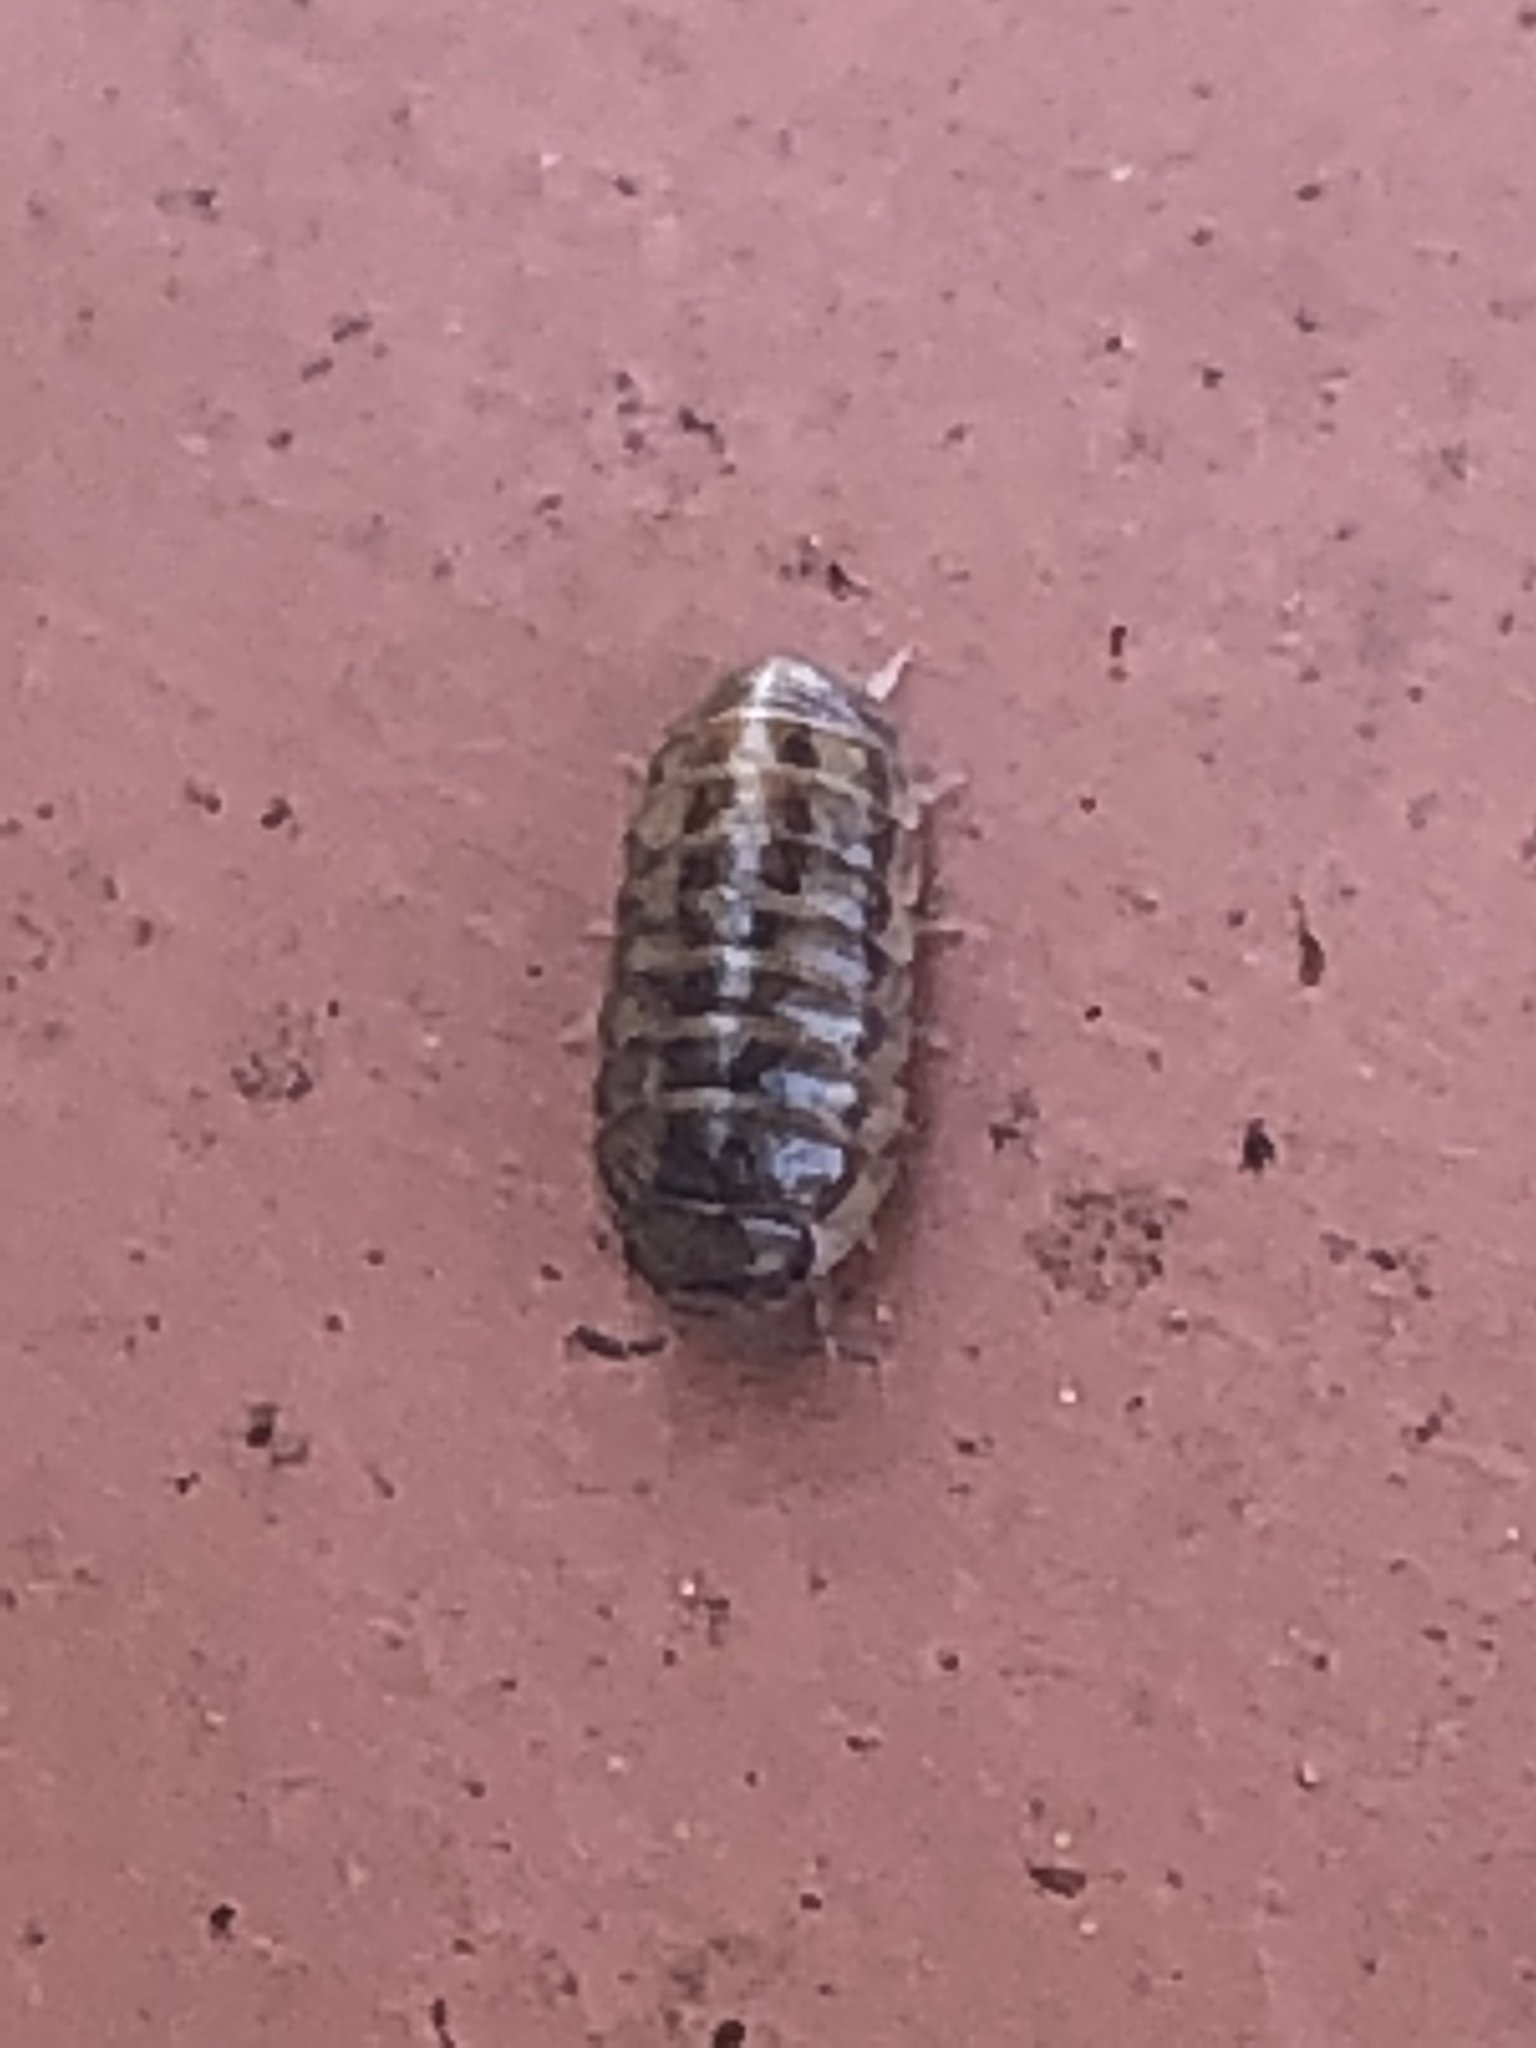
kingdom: Animalia
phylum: Arthropoda
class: Malacostraca
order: Isopoda
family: Armadillidiidae
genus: Armadillidium
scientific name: Armadillidium vulgare
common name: Common pill woodlouse
